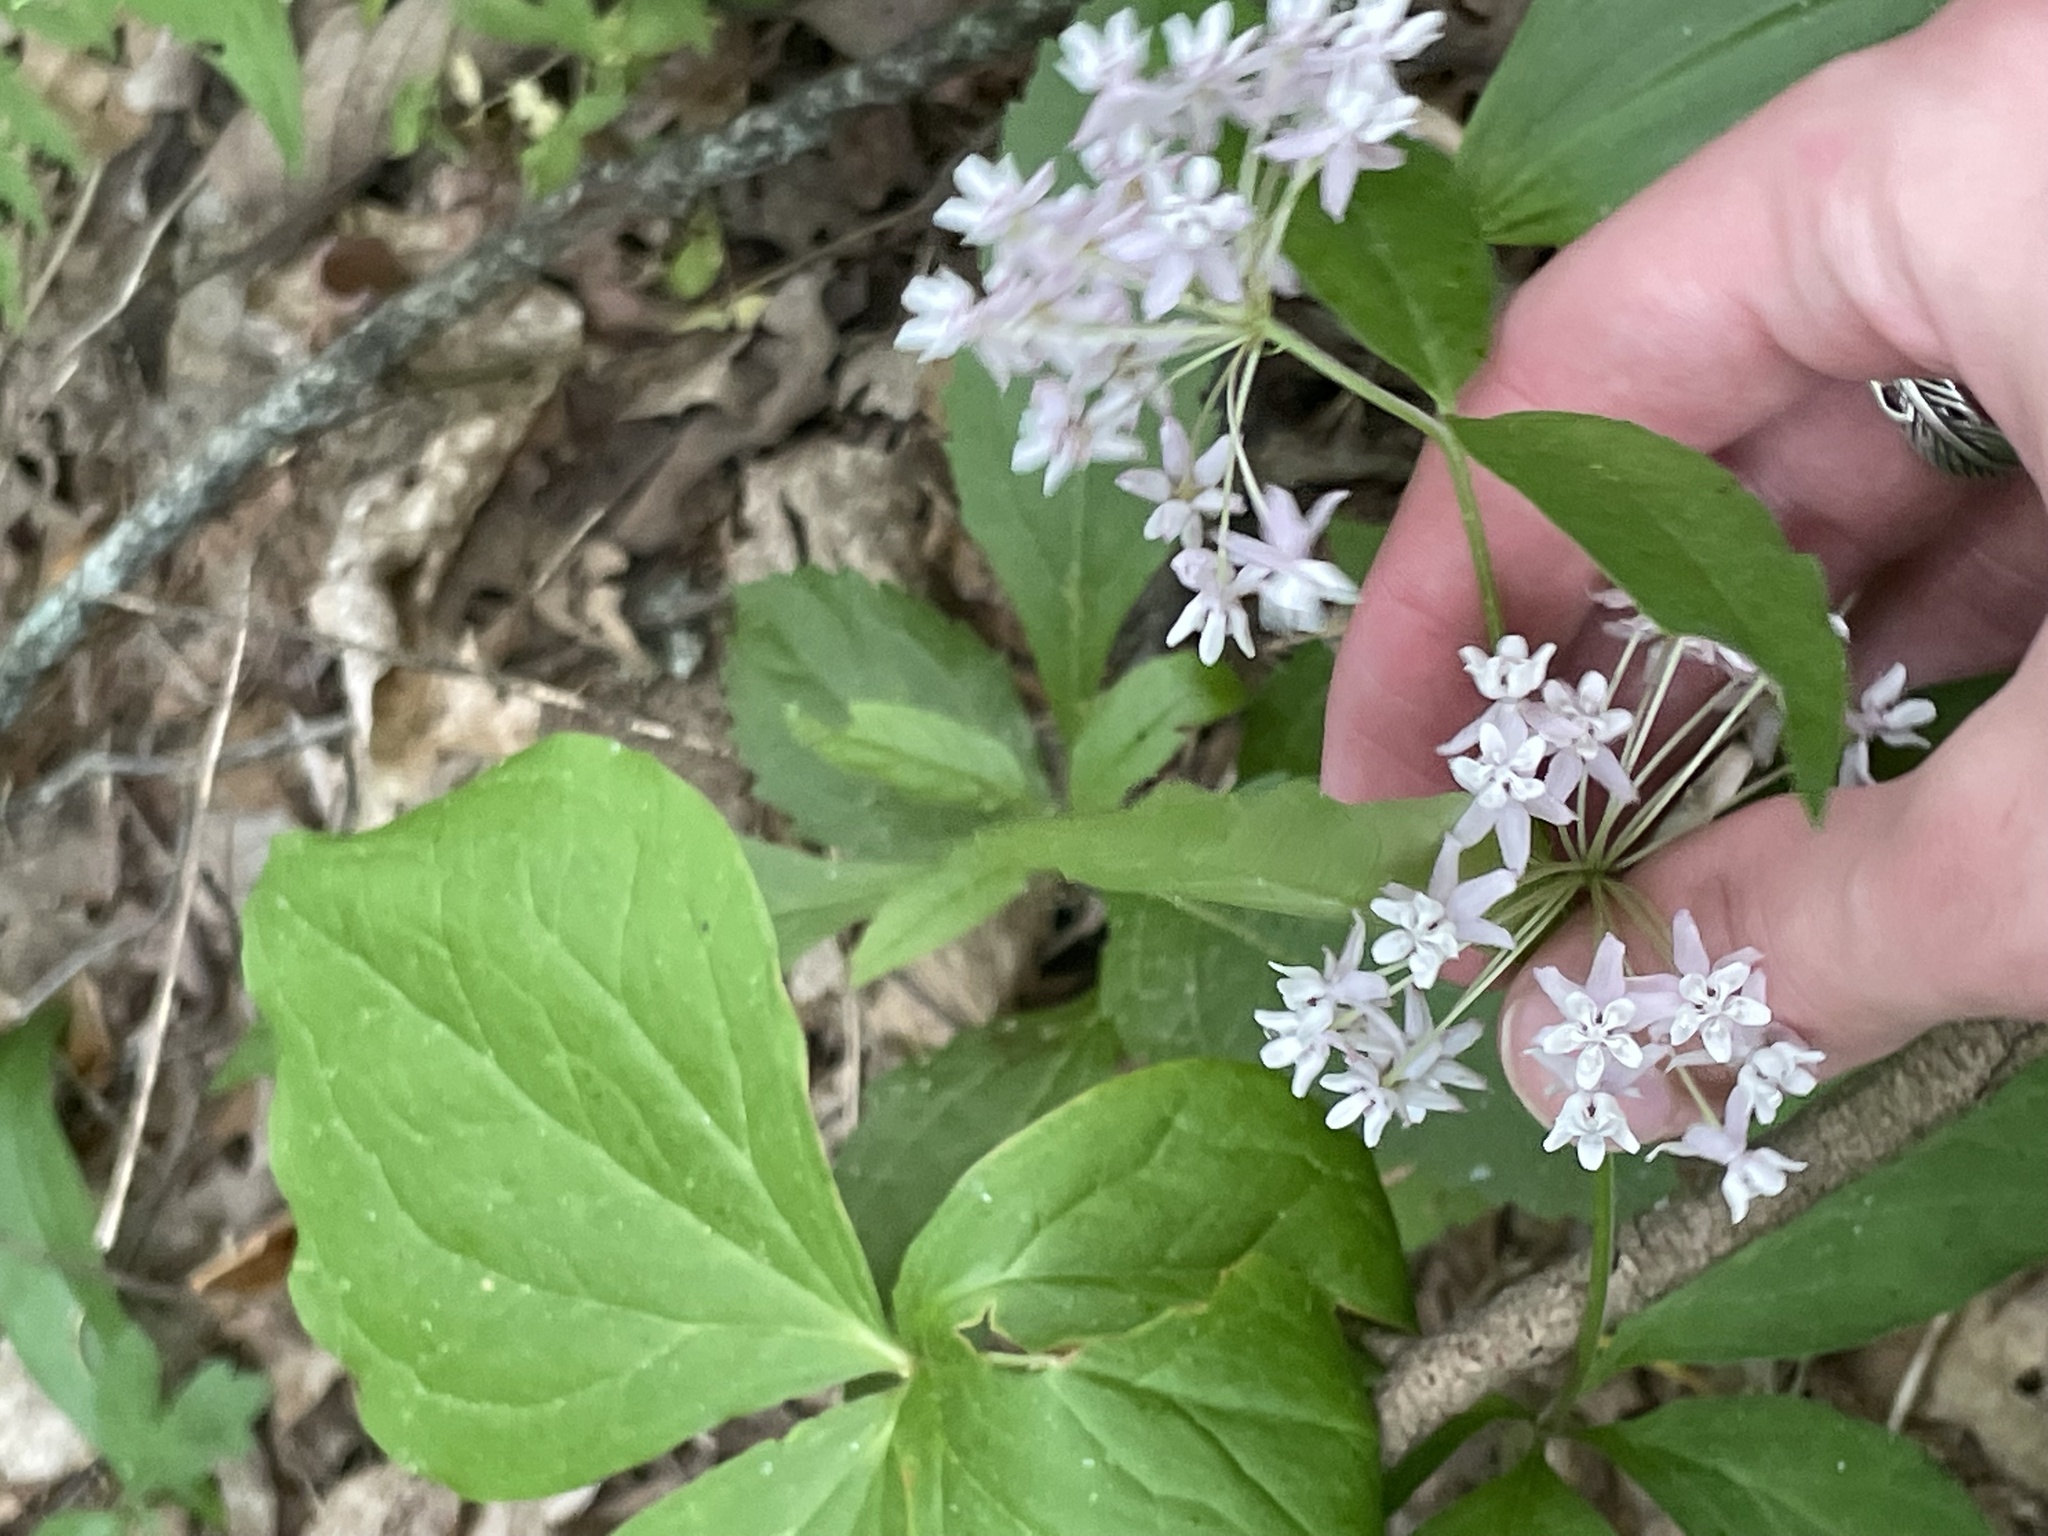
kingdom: Plantae
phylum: Tracheophyta
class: Magnoliopsida
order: Gentianales
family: Apocynaceae
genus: Asclepias
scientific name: Asclepias quadrifolia
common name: Whorled milkweed
